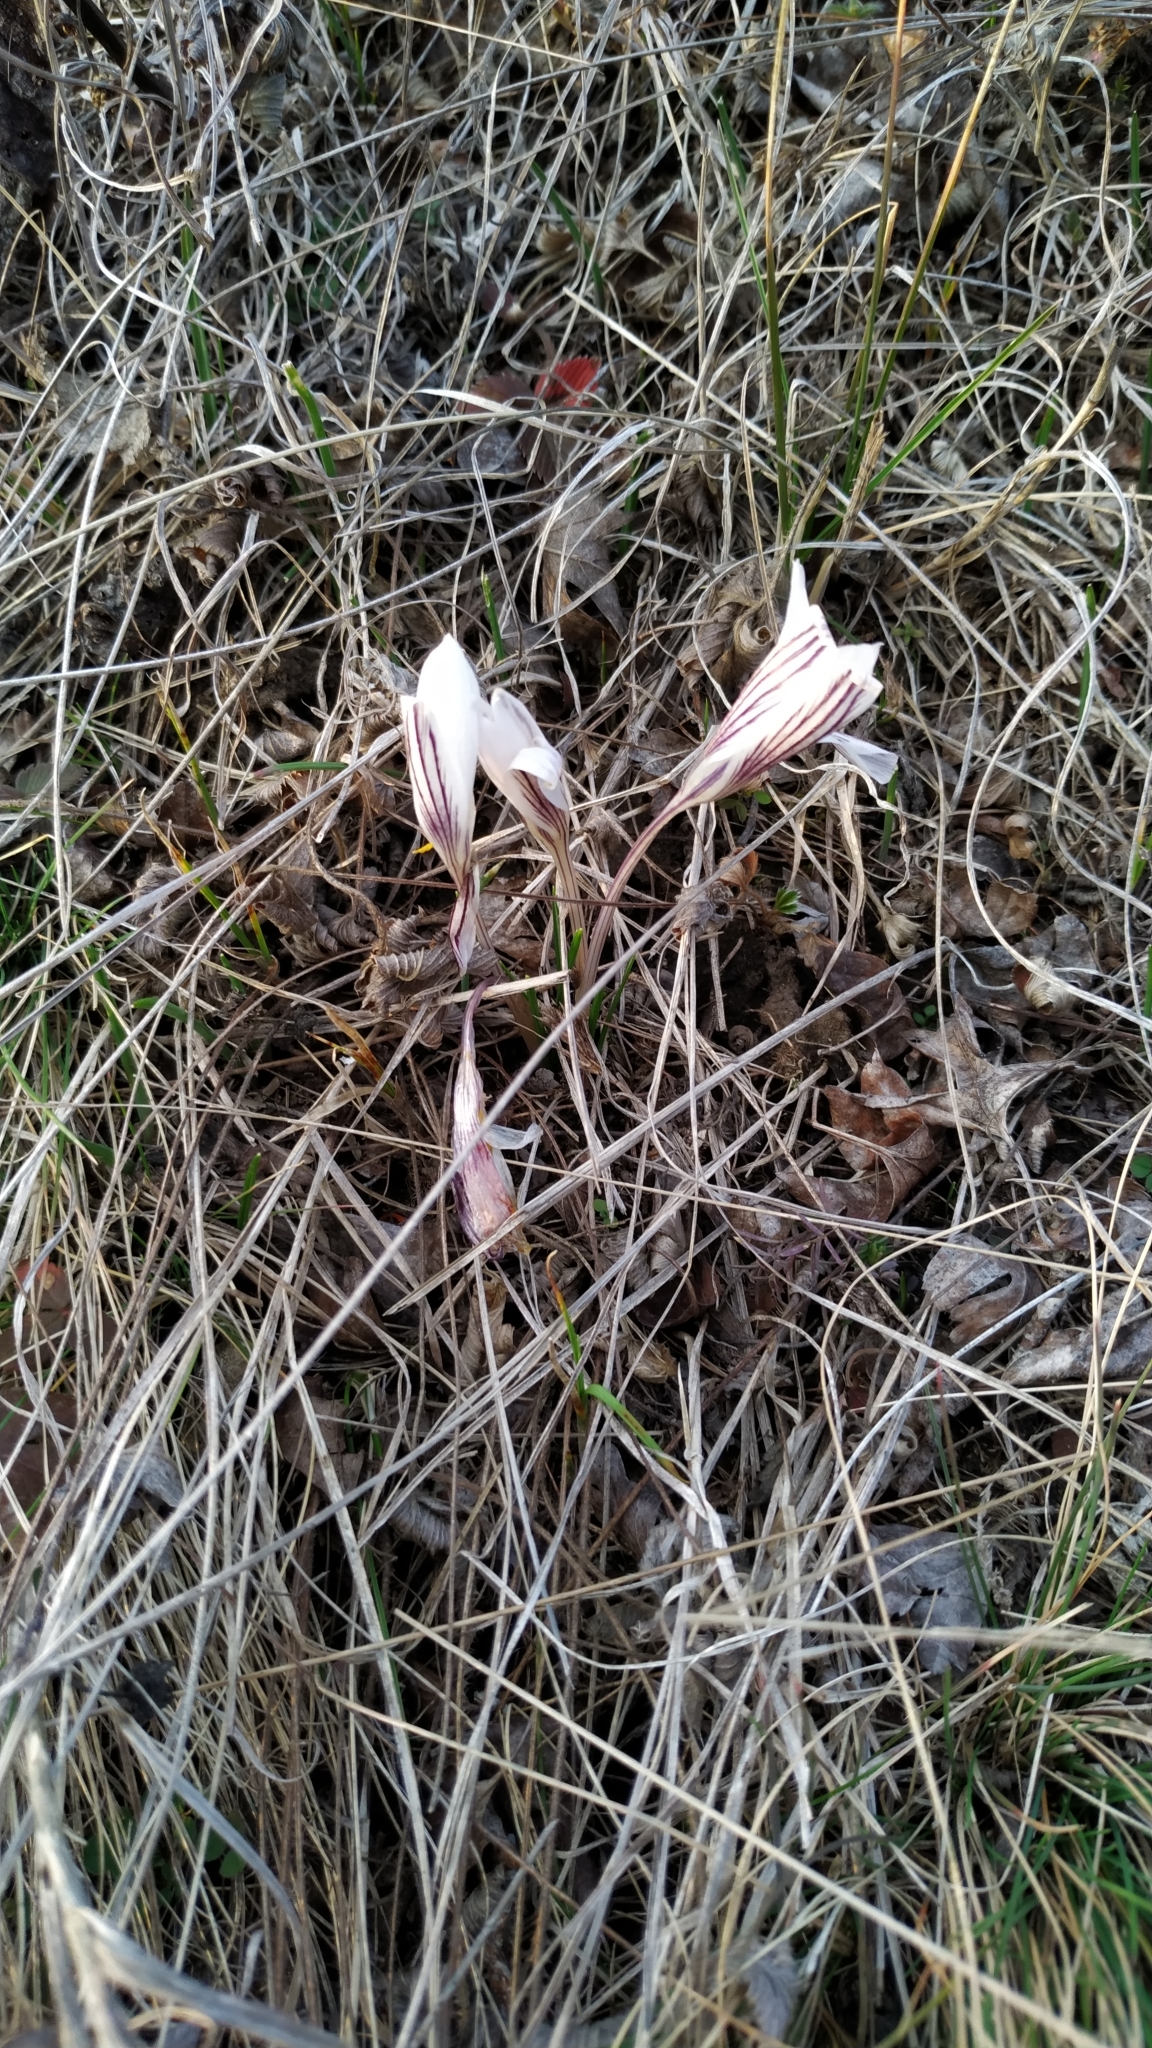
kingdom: Plantae
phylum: Tracheophyta
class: Liliopsida
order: Asparagales
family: Iridaceae
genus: Crocus
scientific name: Crocus reticulatus
